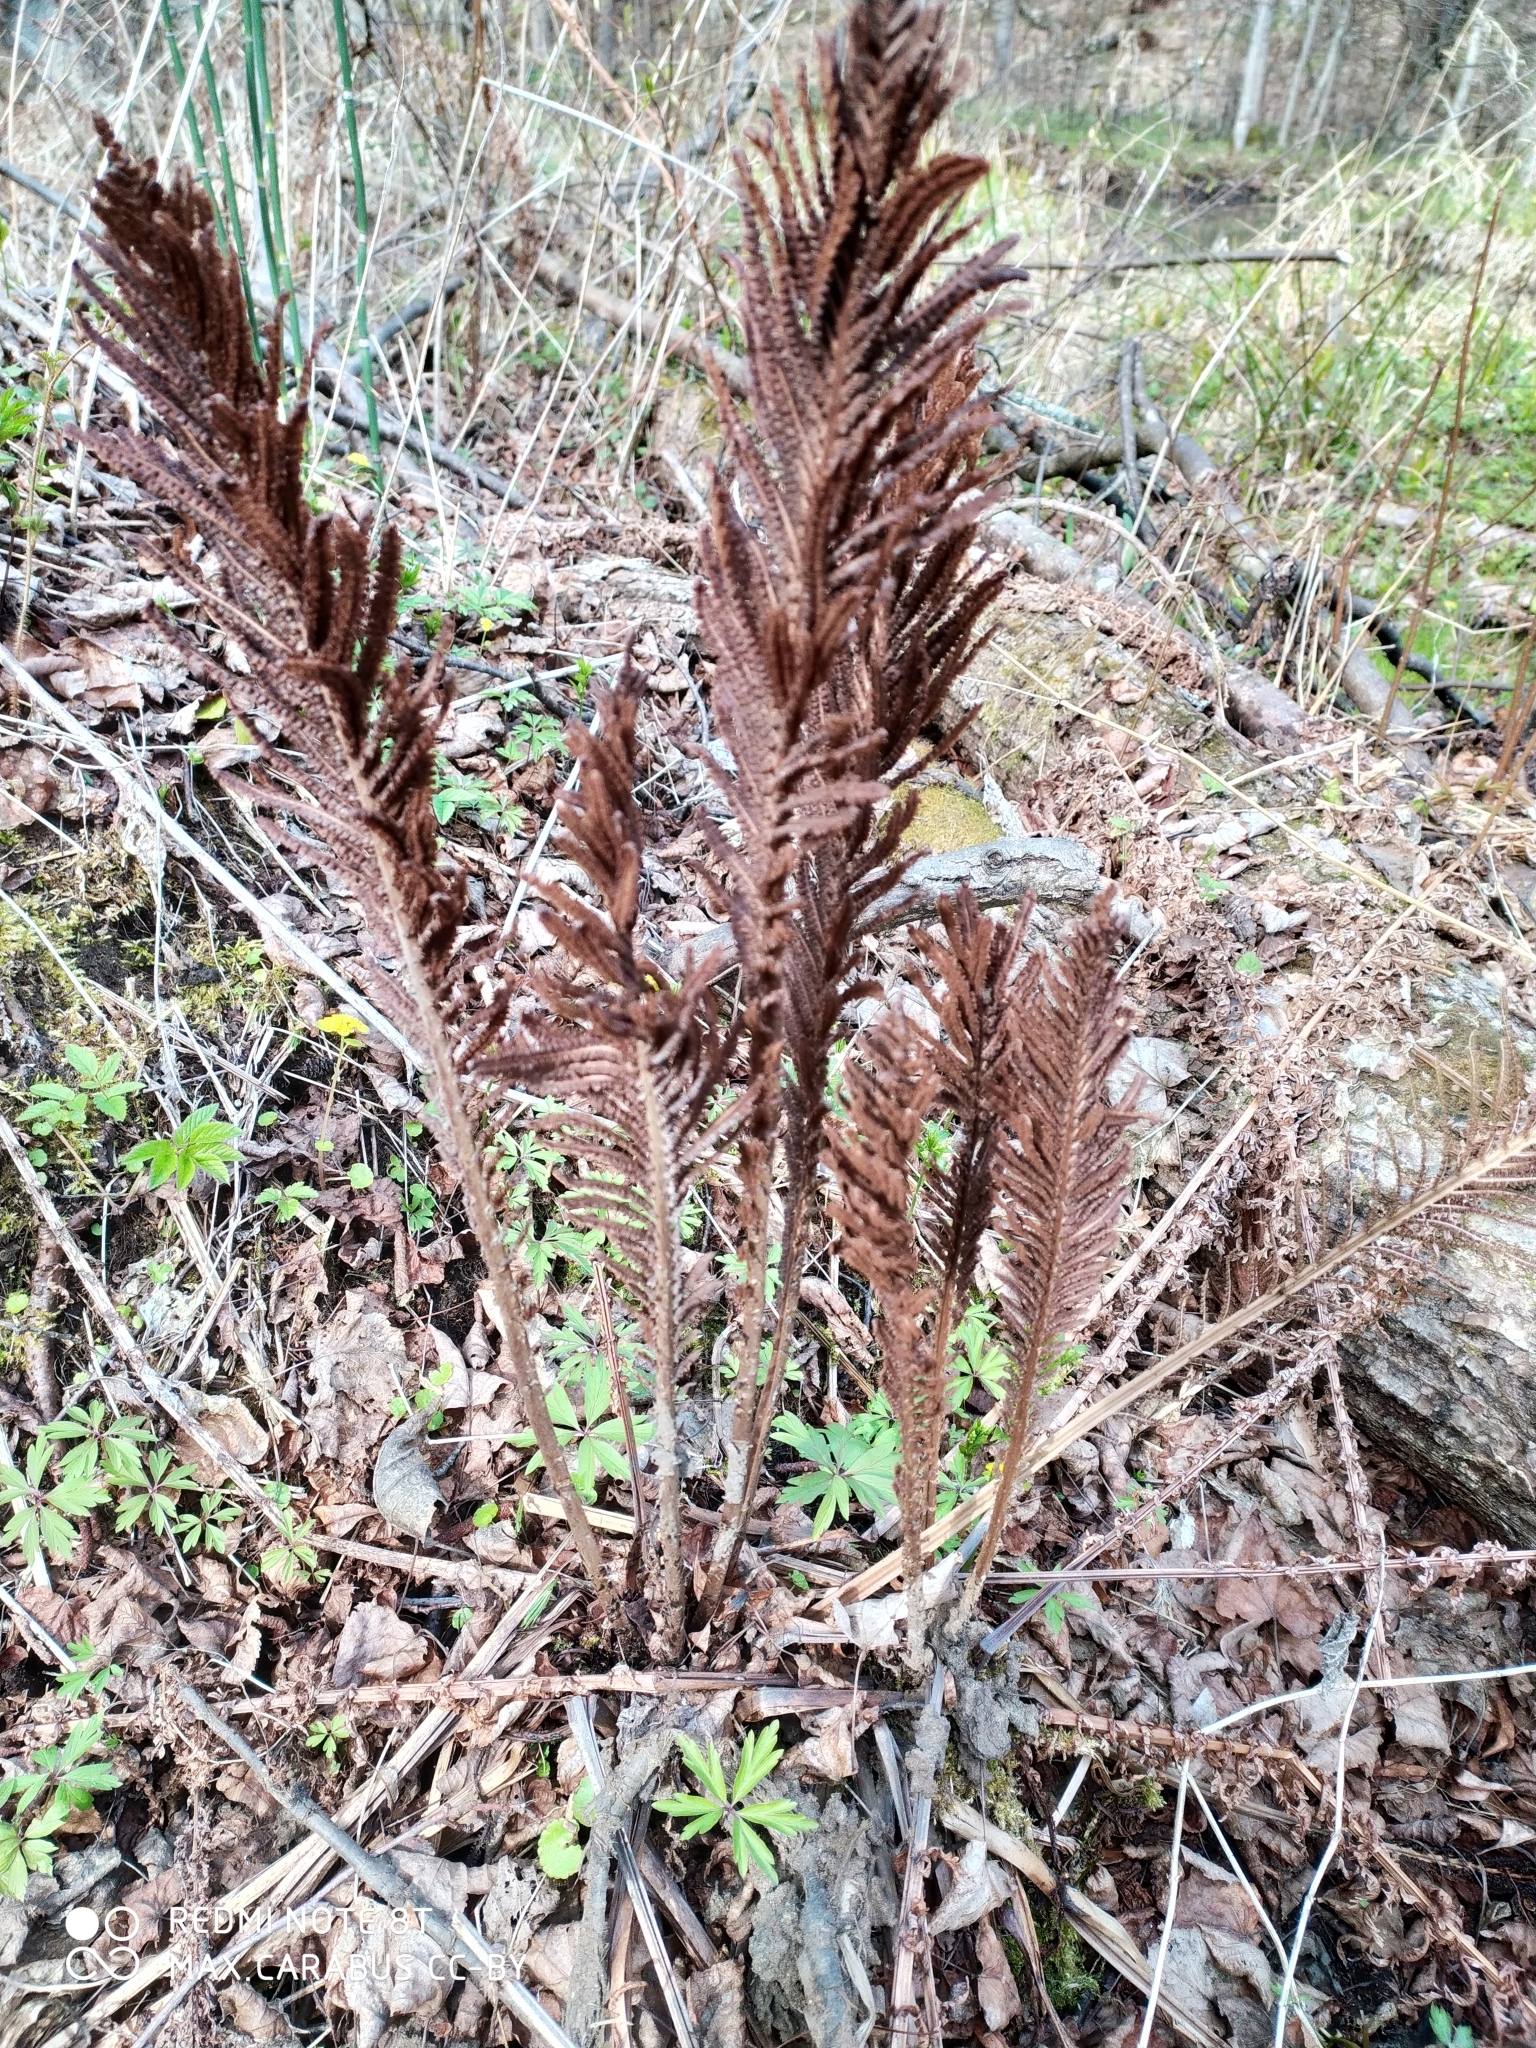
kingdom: Plantae
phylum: Tracheophyta
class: Polypodiopsida
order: Polypodiales
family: Onocleaceae
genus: Matteuccia
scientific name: Matteuccia struthiopteris
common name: Ostrich fern
